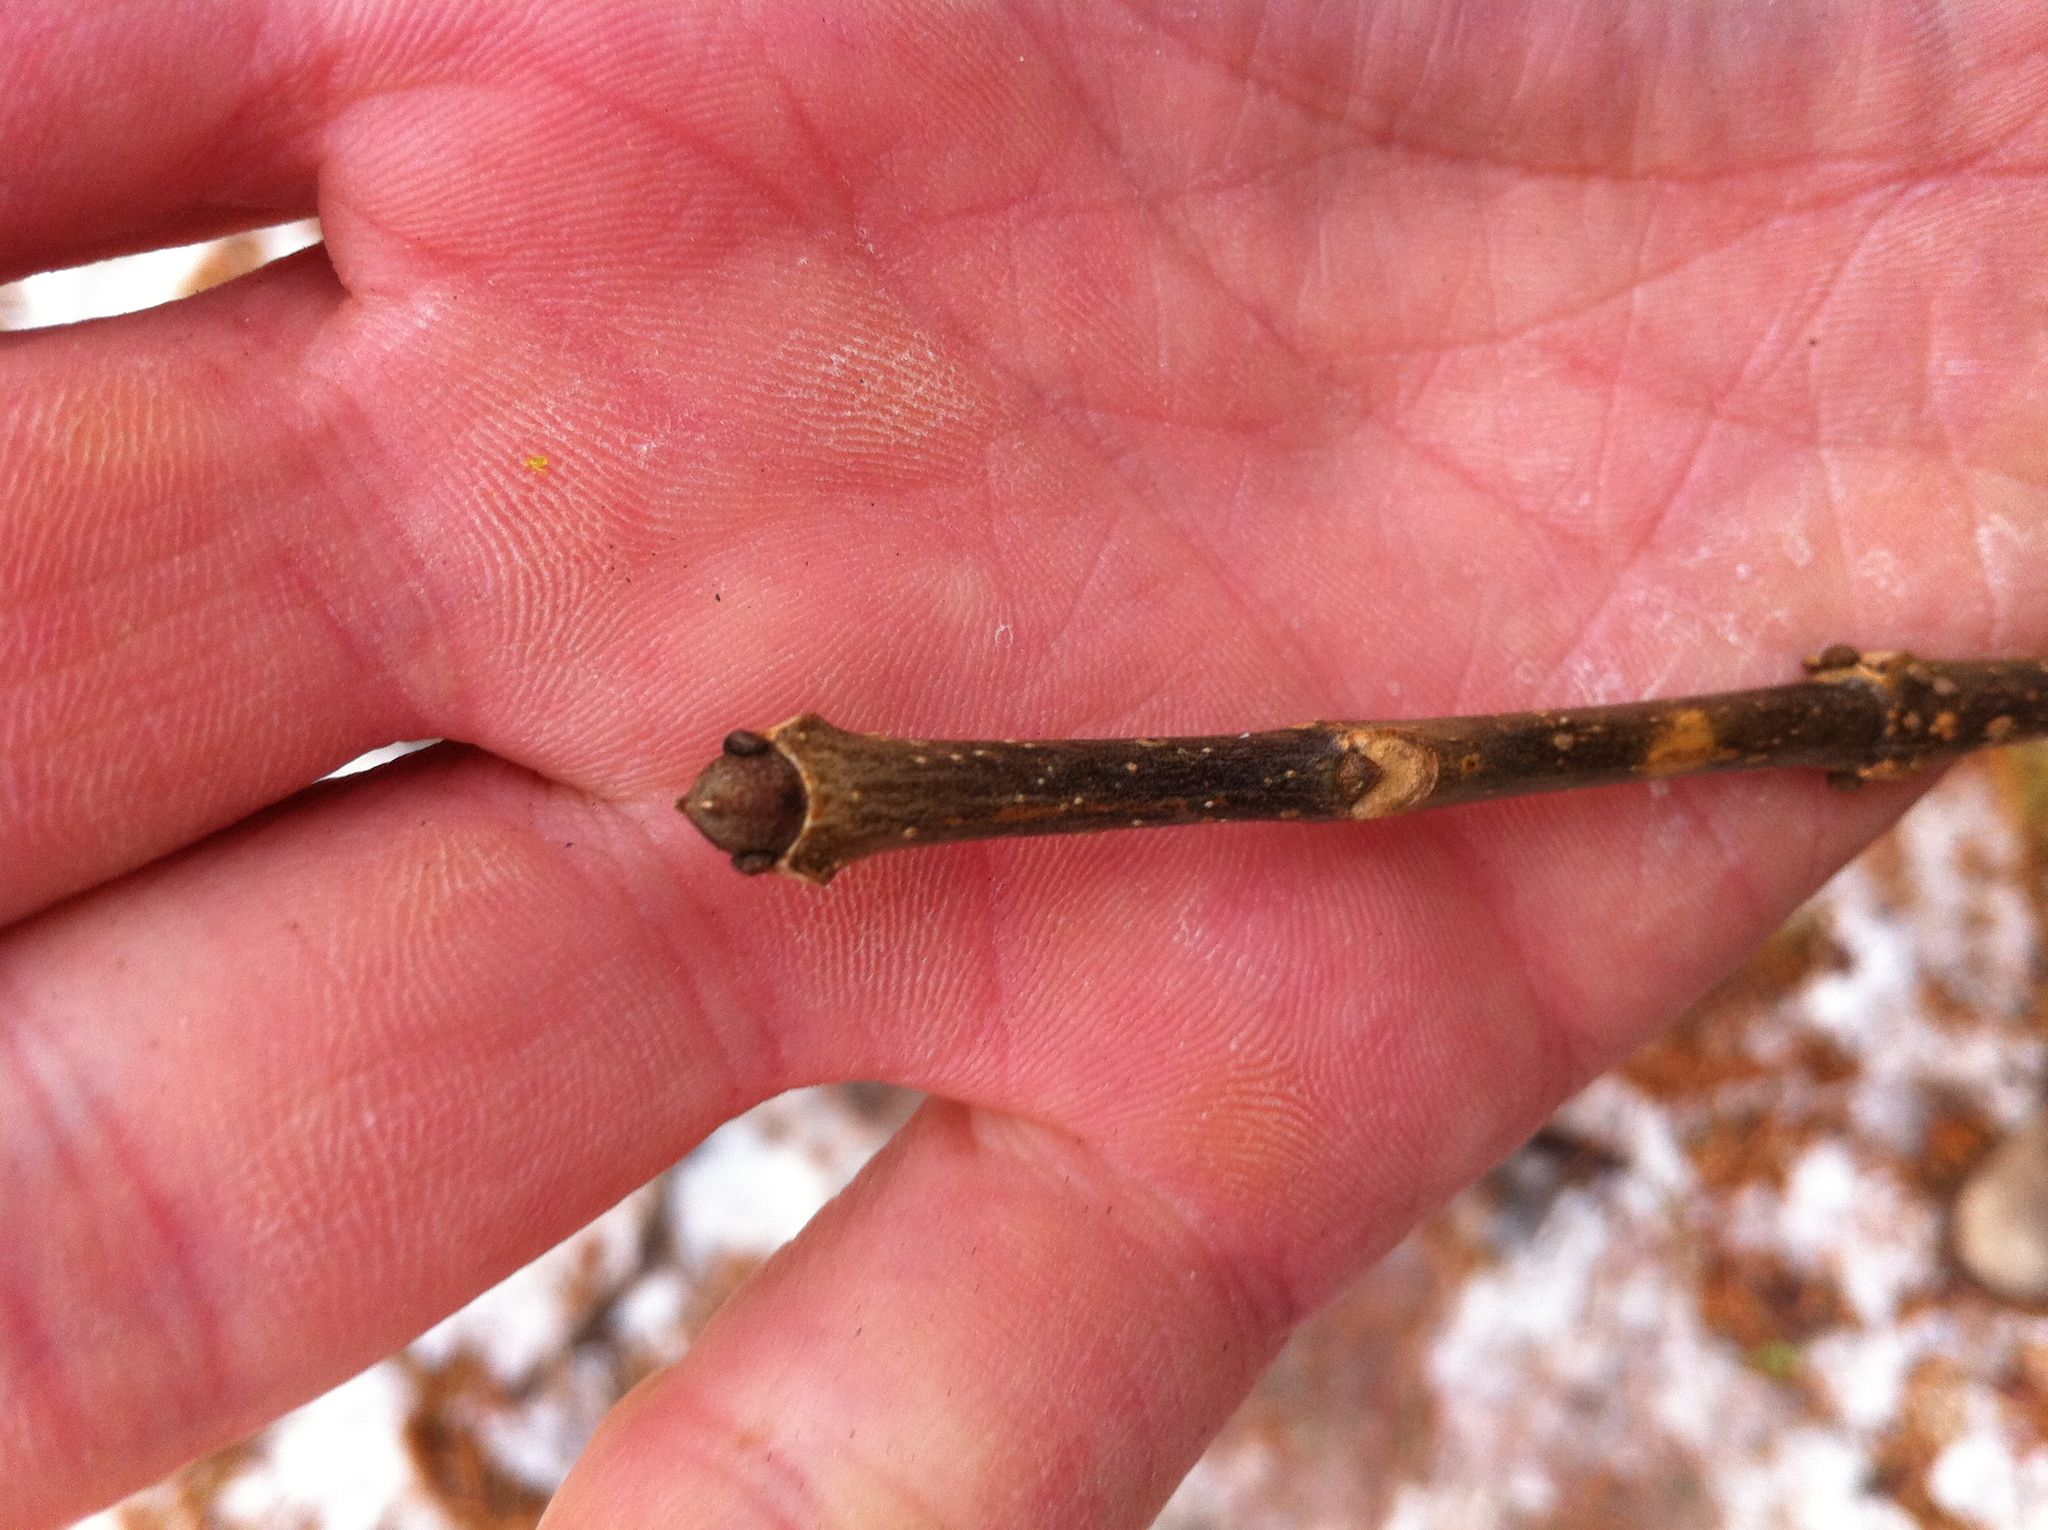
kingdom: Plantae
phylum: Tracheophyta
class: Magnoliopsida
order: Lamiales
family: Oleaceae
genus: Fraxinus
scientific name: Fraxinus americana
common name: White ash
